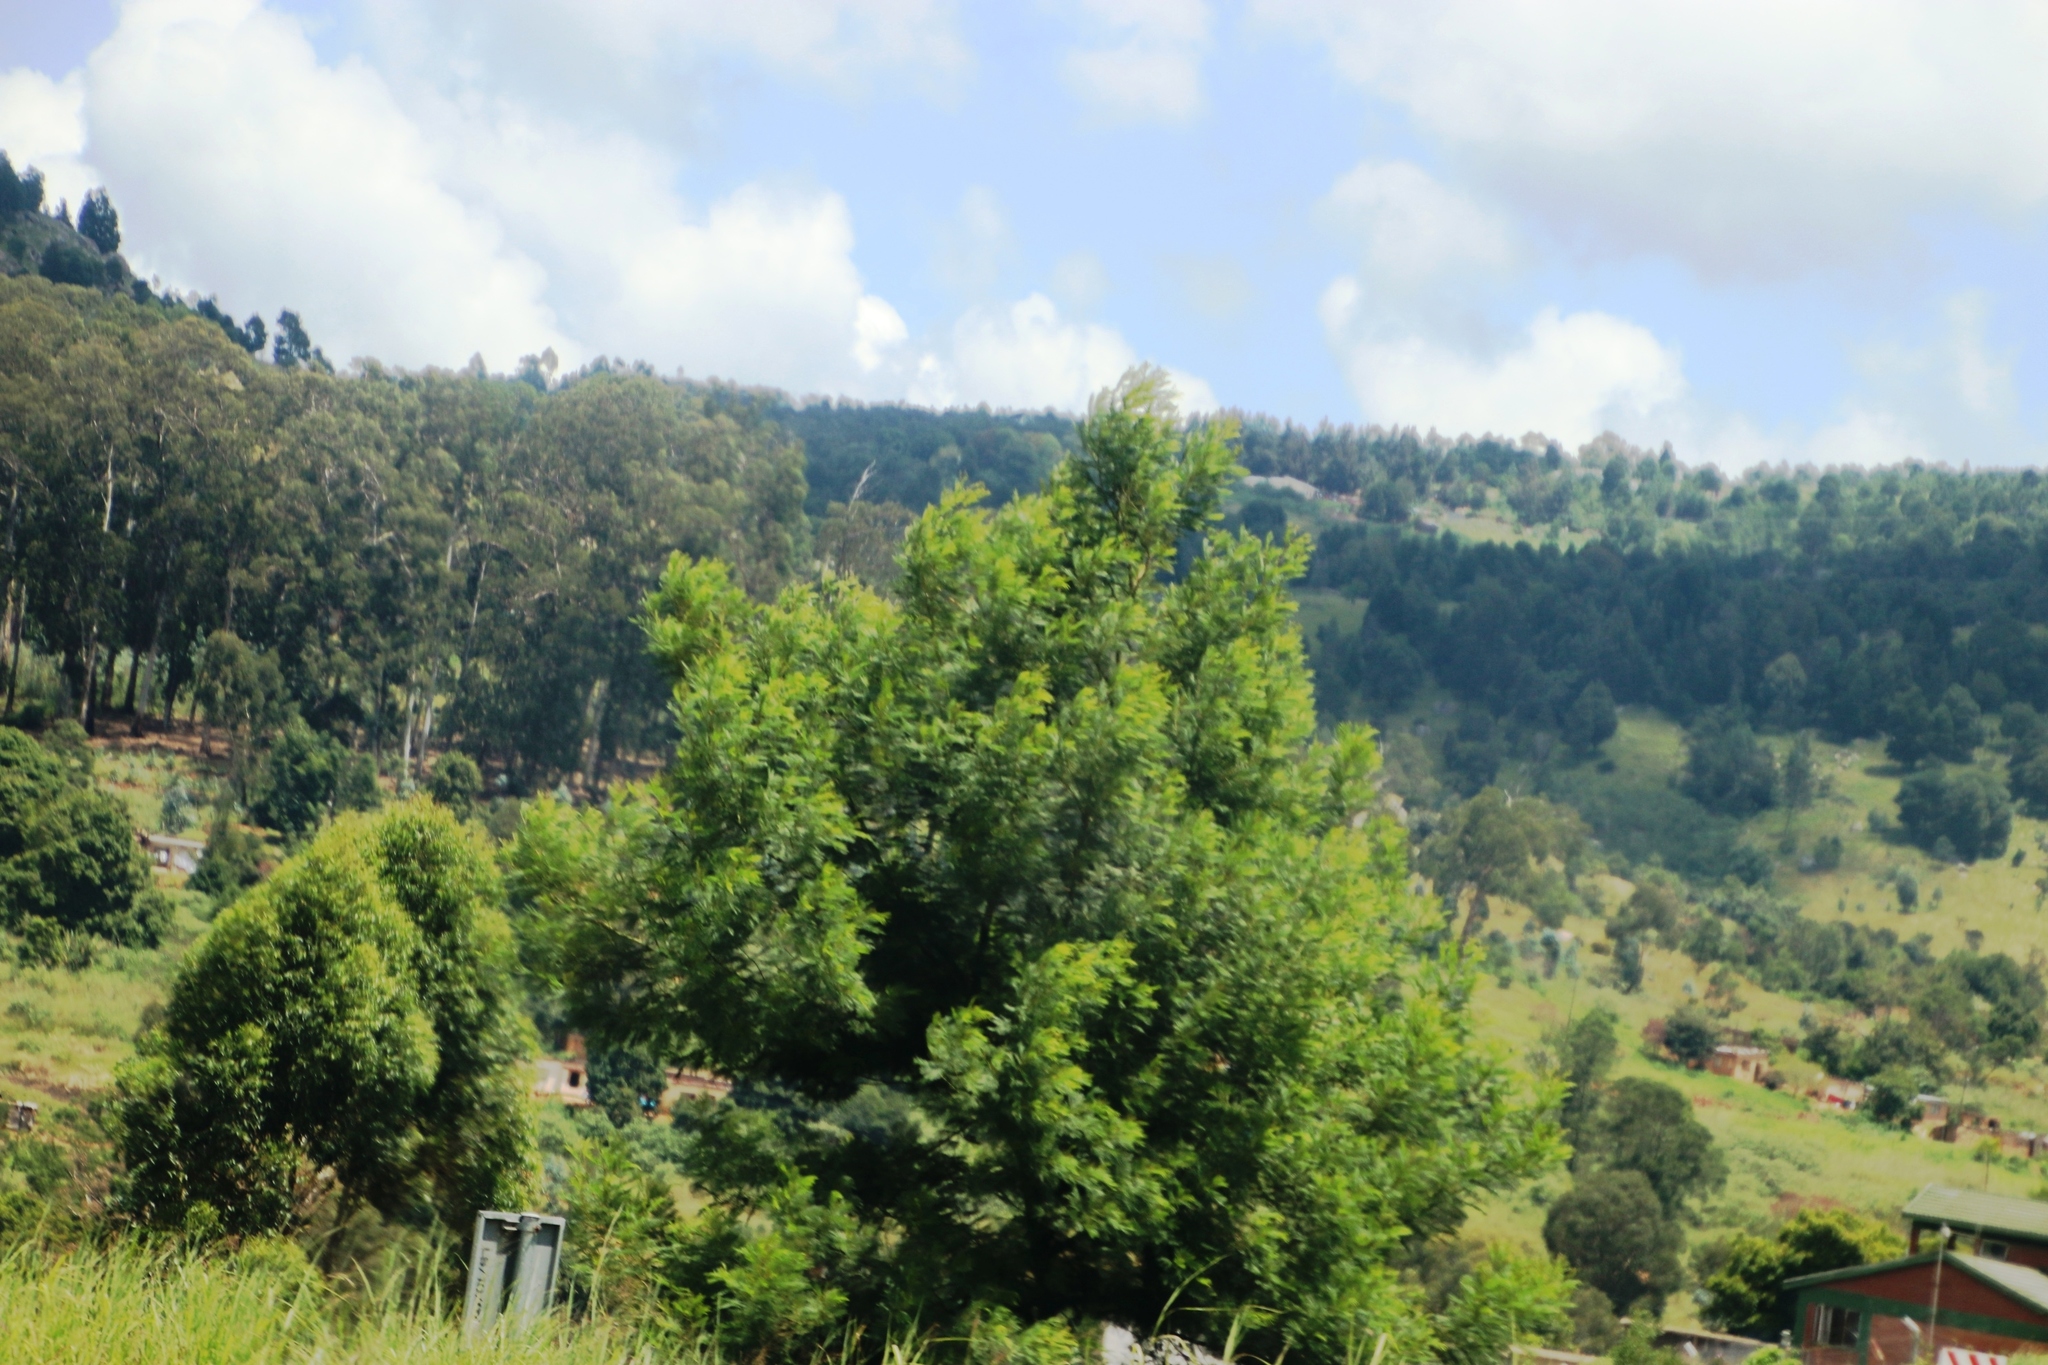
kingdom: Plantae
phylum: Tracheophyta
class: Magnoliopsida
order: Fabales
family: Fabaceae
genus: Acacia
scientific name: Acacia dealbata
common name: Silver wattle
